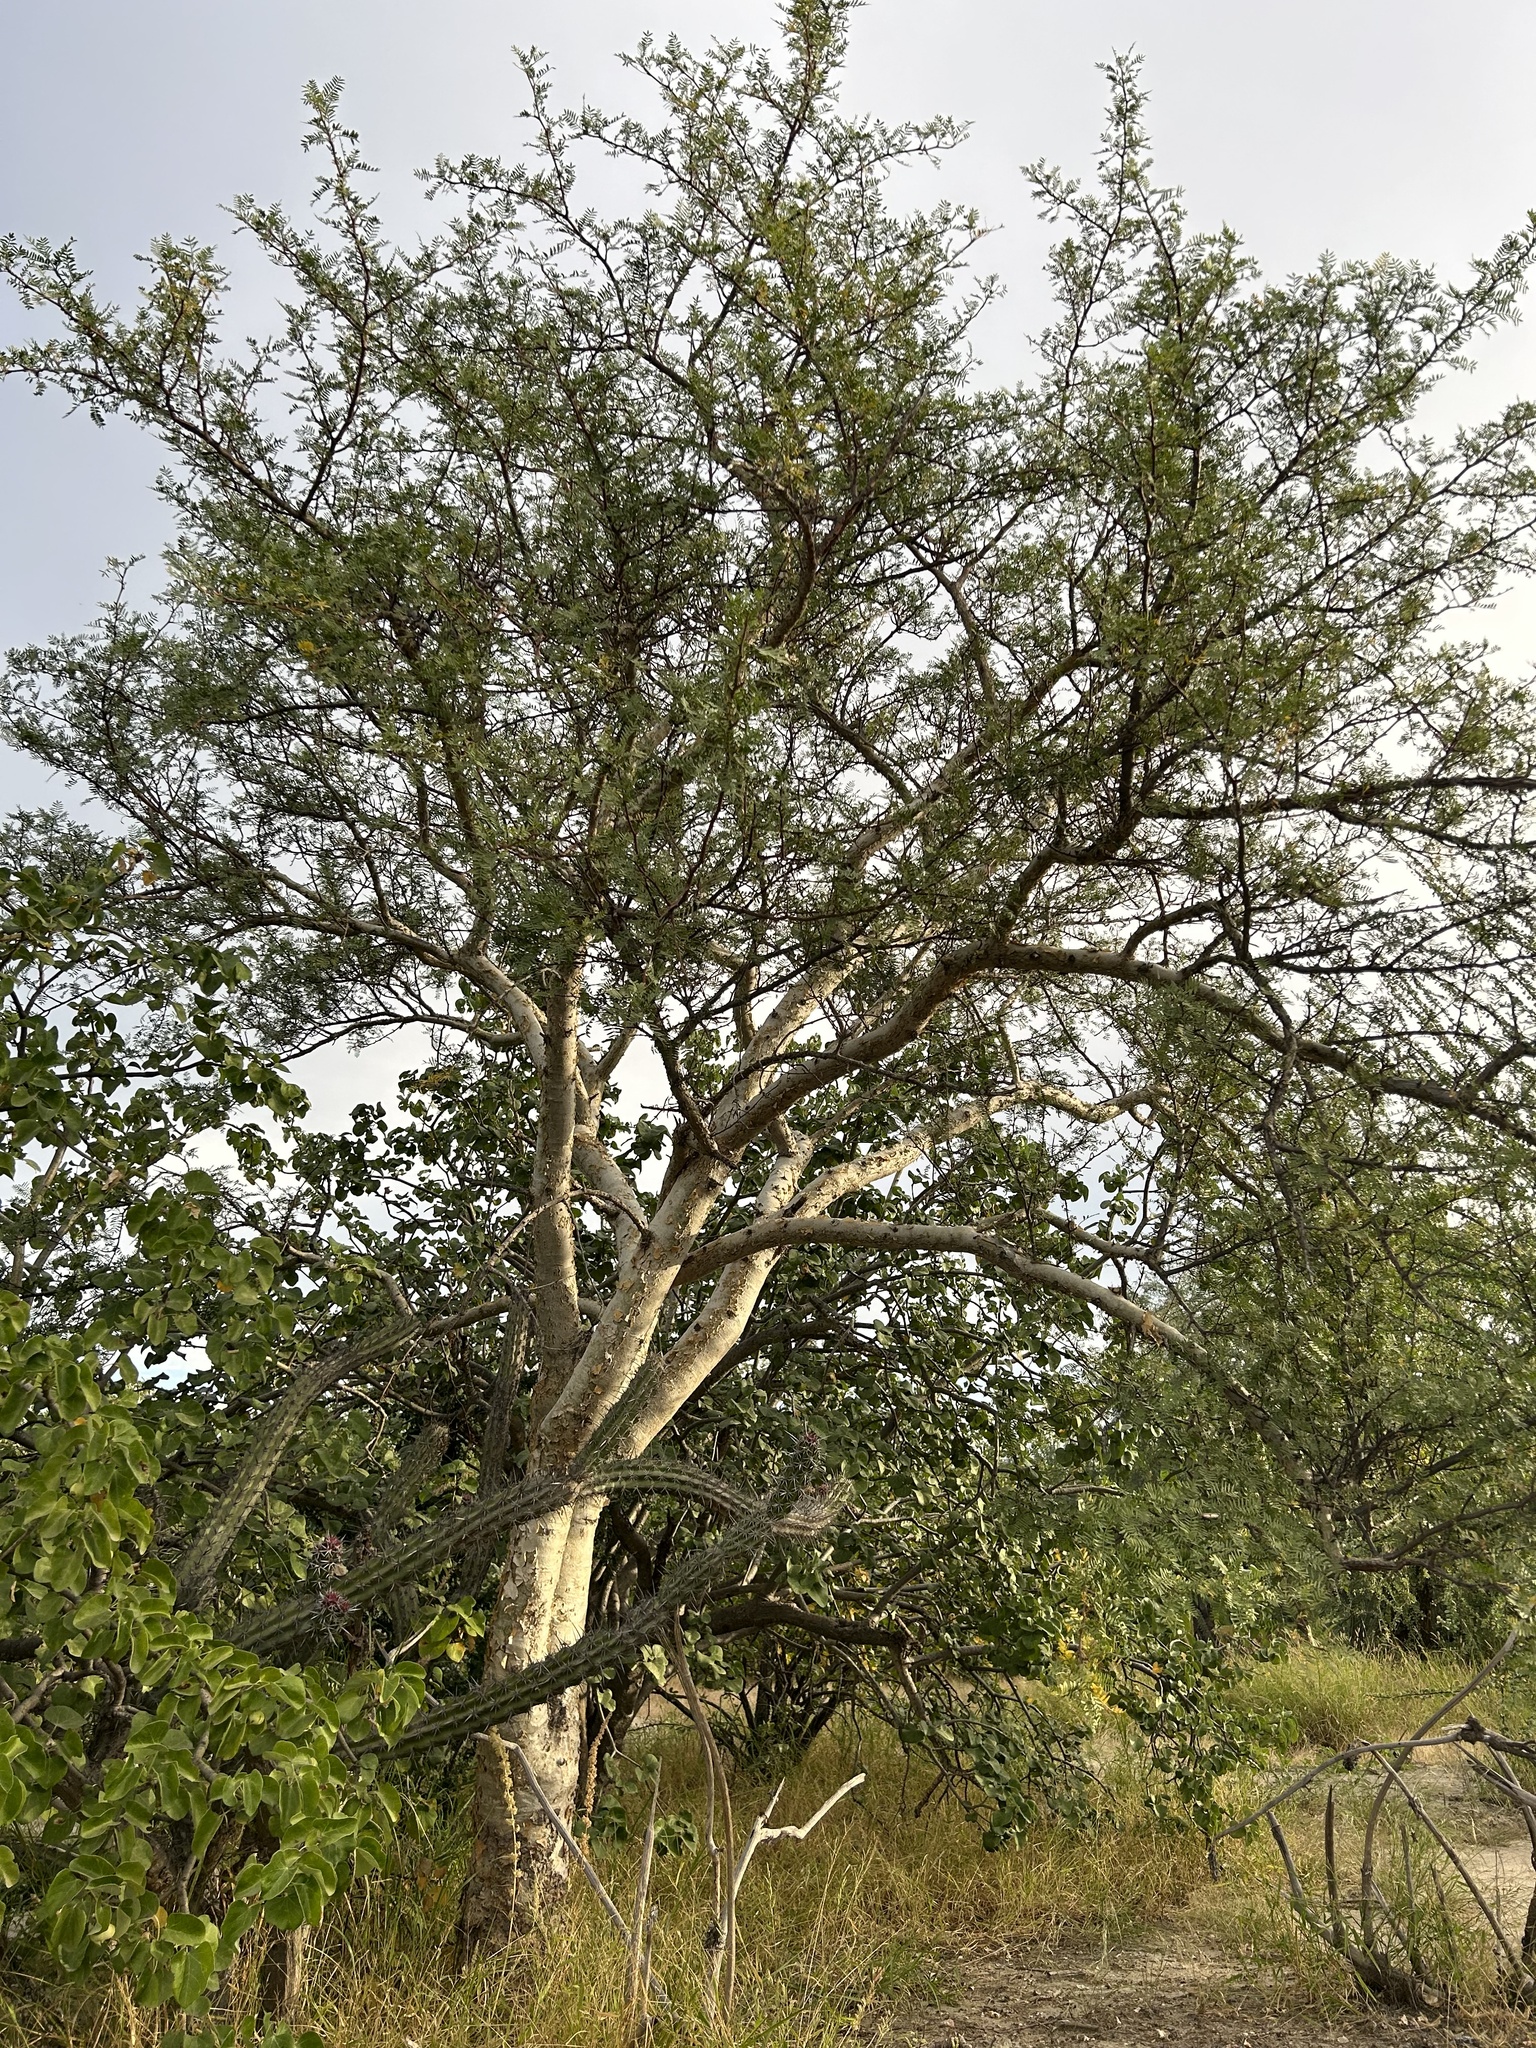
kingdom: Plantae
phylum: Tracheophyta
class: Magnoliopsida
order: Sapindales
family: Burseraceae
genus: Bursera
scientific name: Bursera microphylla
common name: Elephant tree
